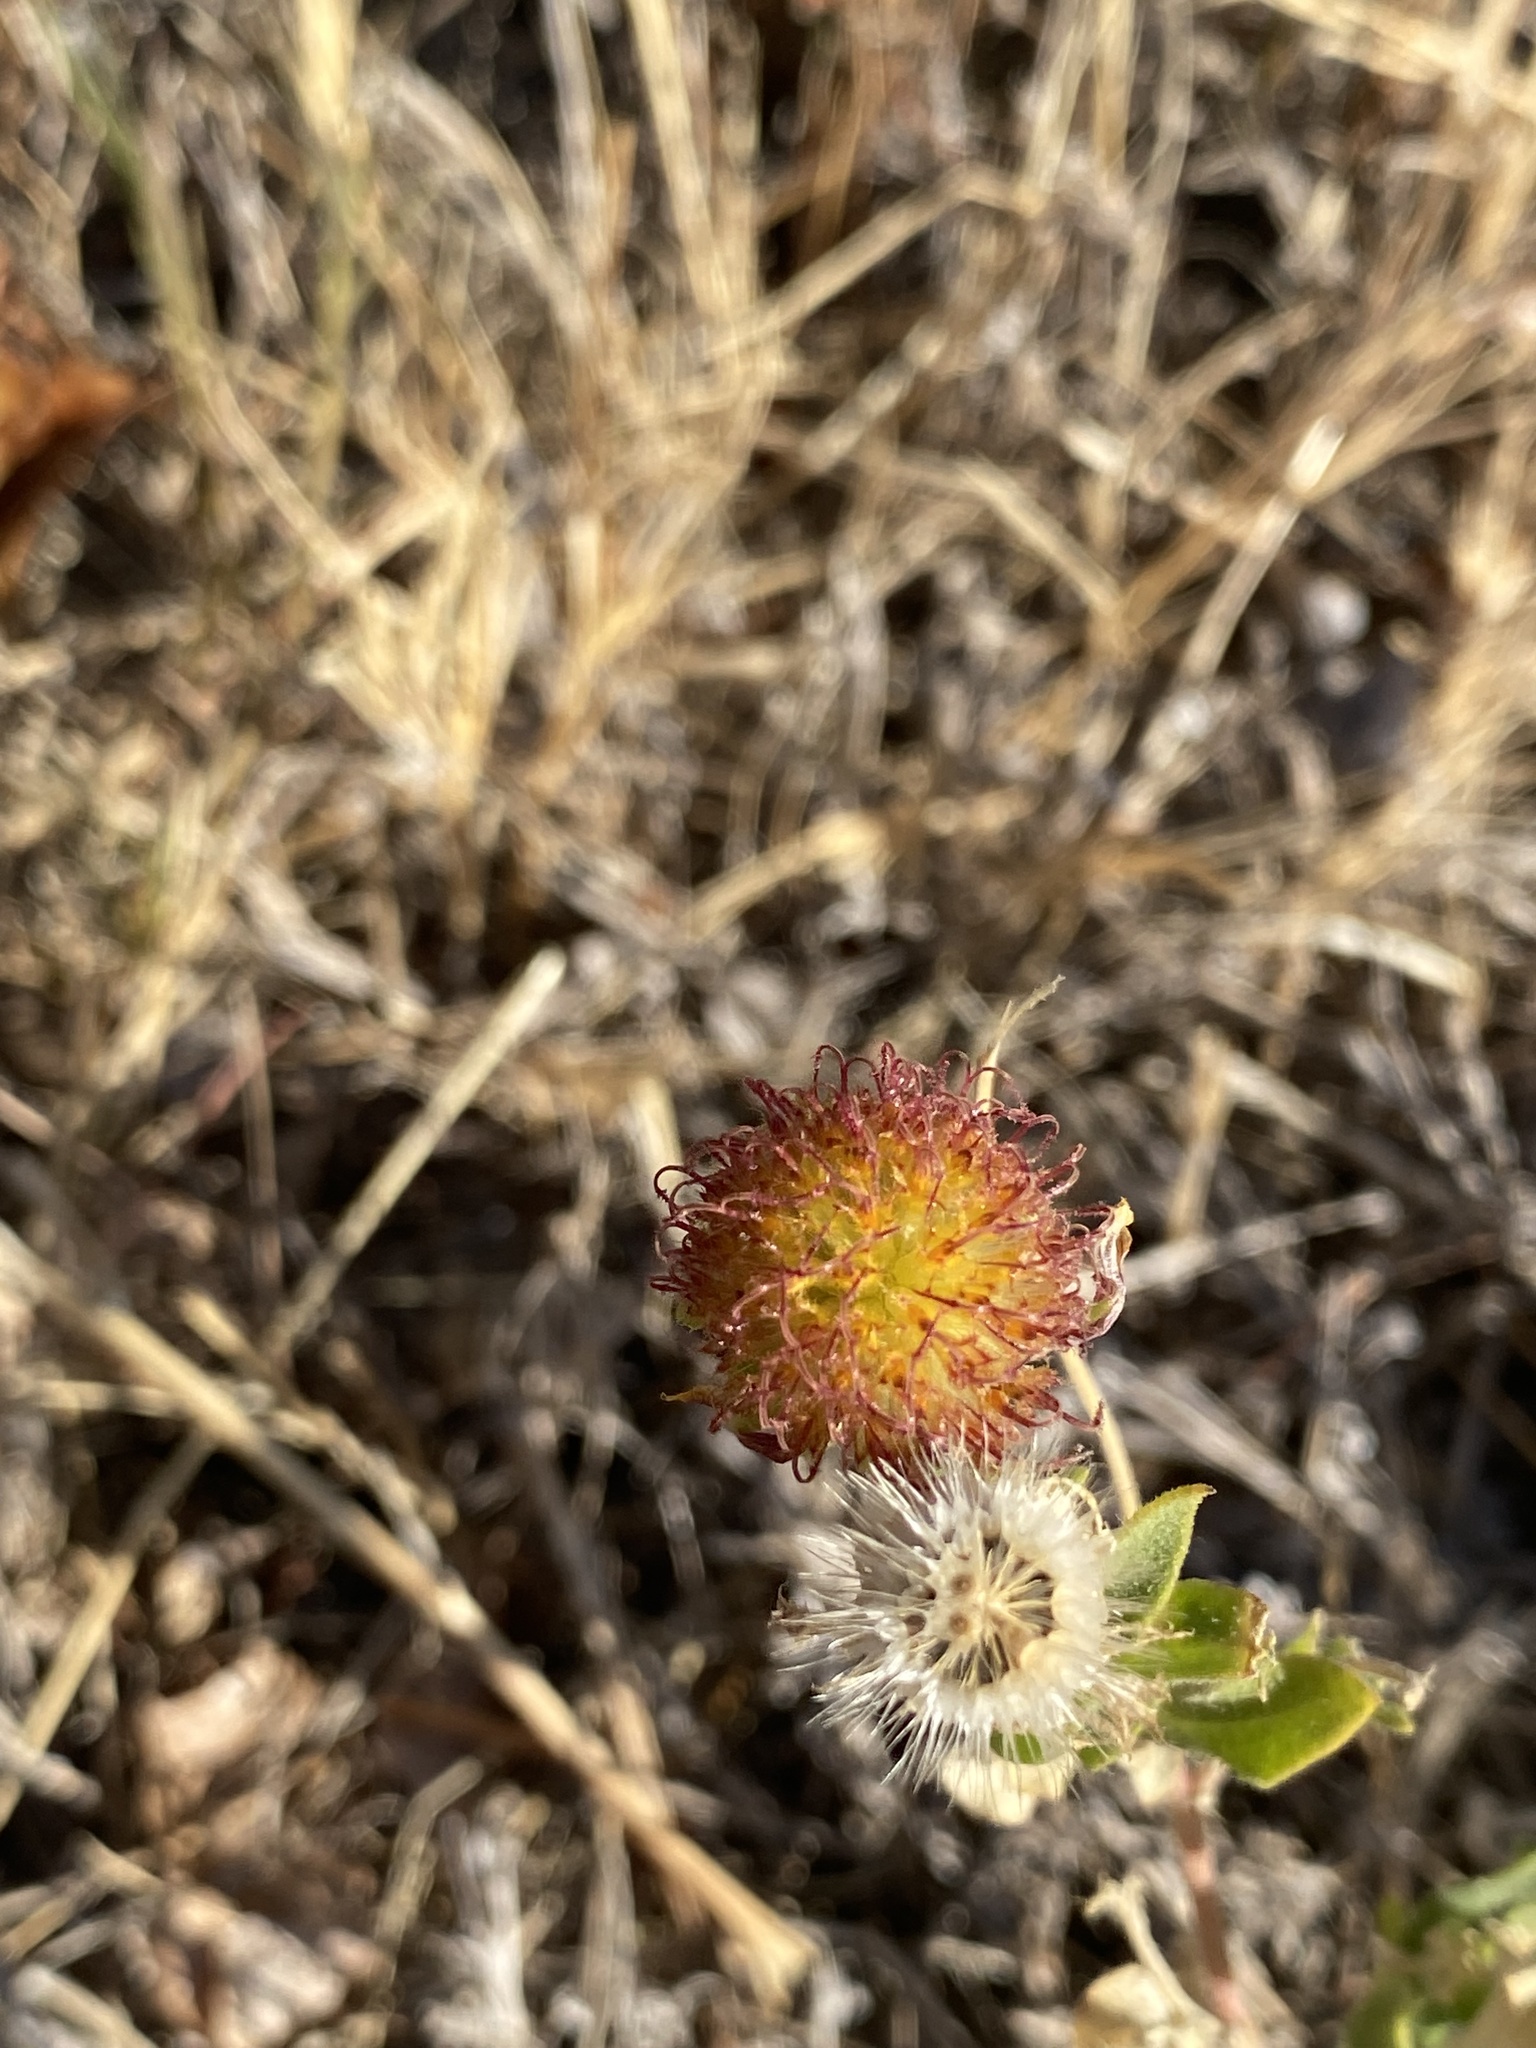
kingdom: Plantae
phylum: Tracheophyta
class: Magnoliopsida
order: Asterales
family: Asteraceae
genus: Gaillardia
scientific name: Gaillardia pulchella
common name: Firewheel
